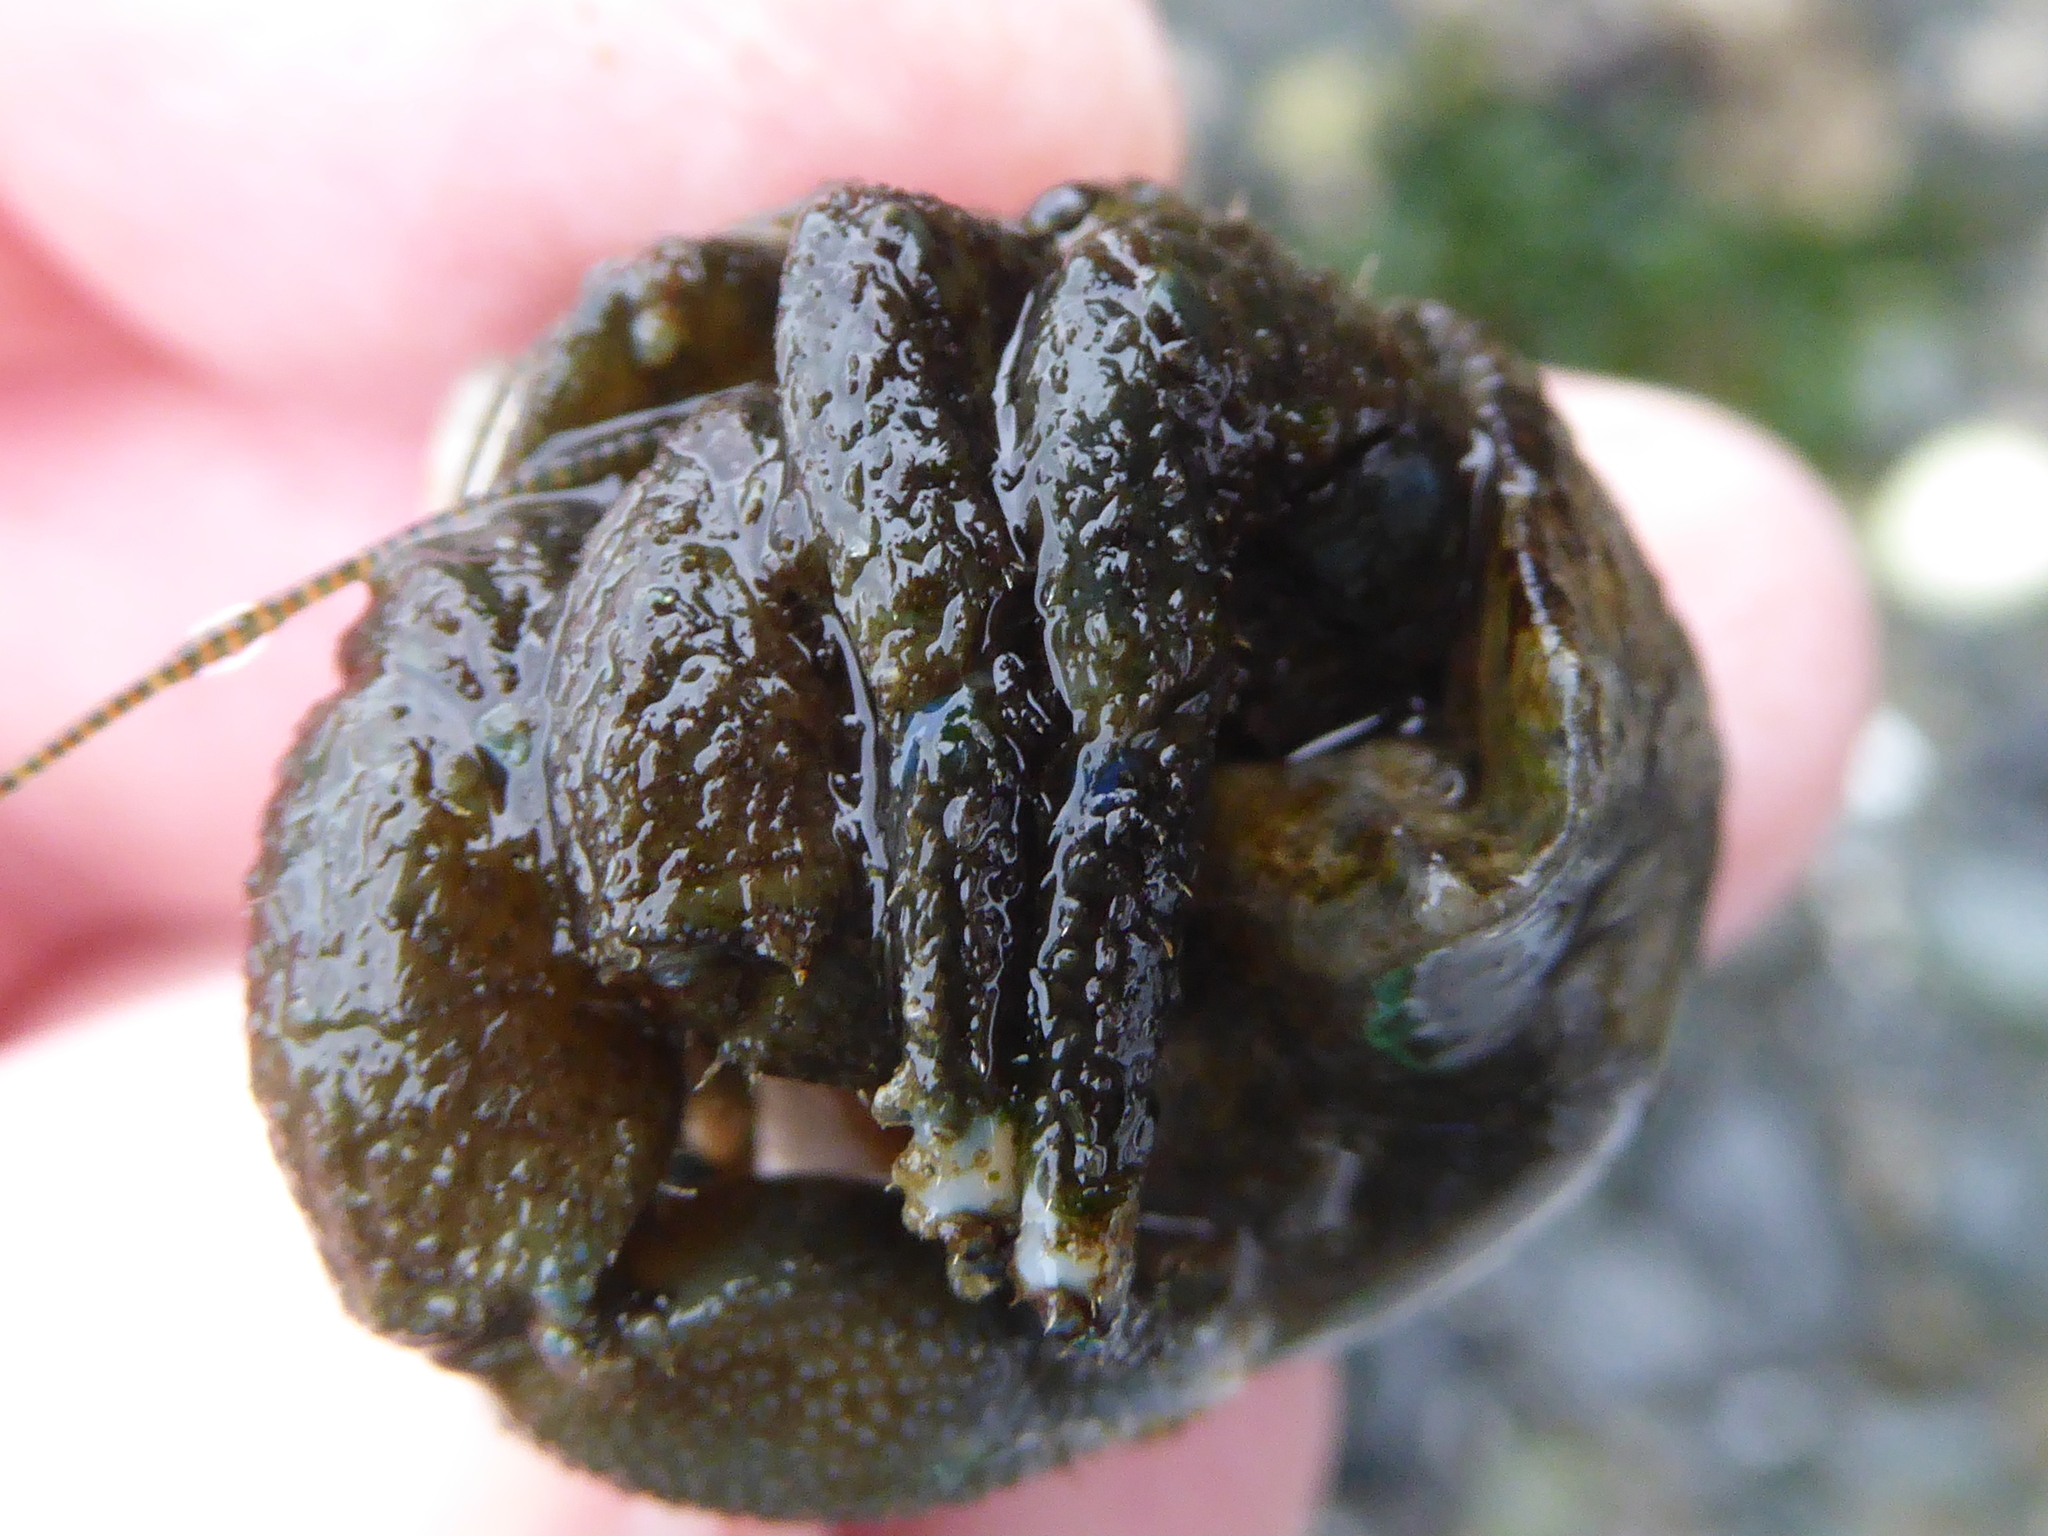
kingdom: Animalia
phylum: Arthropoda
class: Malacostraca
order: Decapoda
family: Paguridae
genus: Pagurus
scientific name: Pagurus hirsutiusculus
